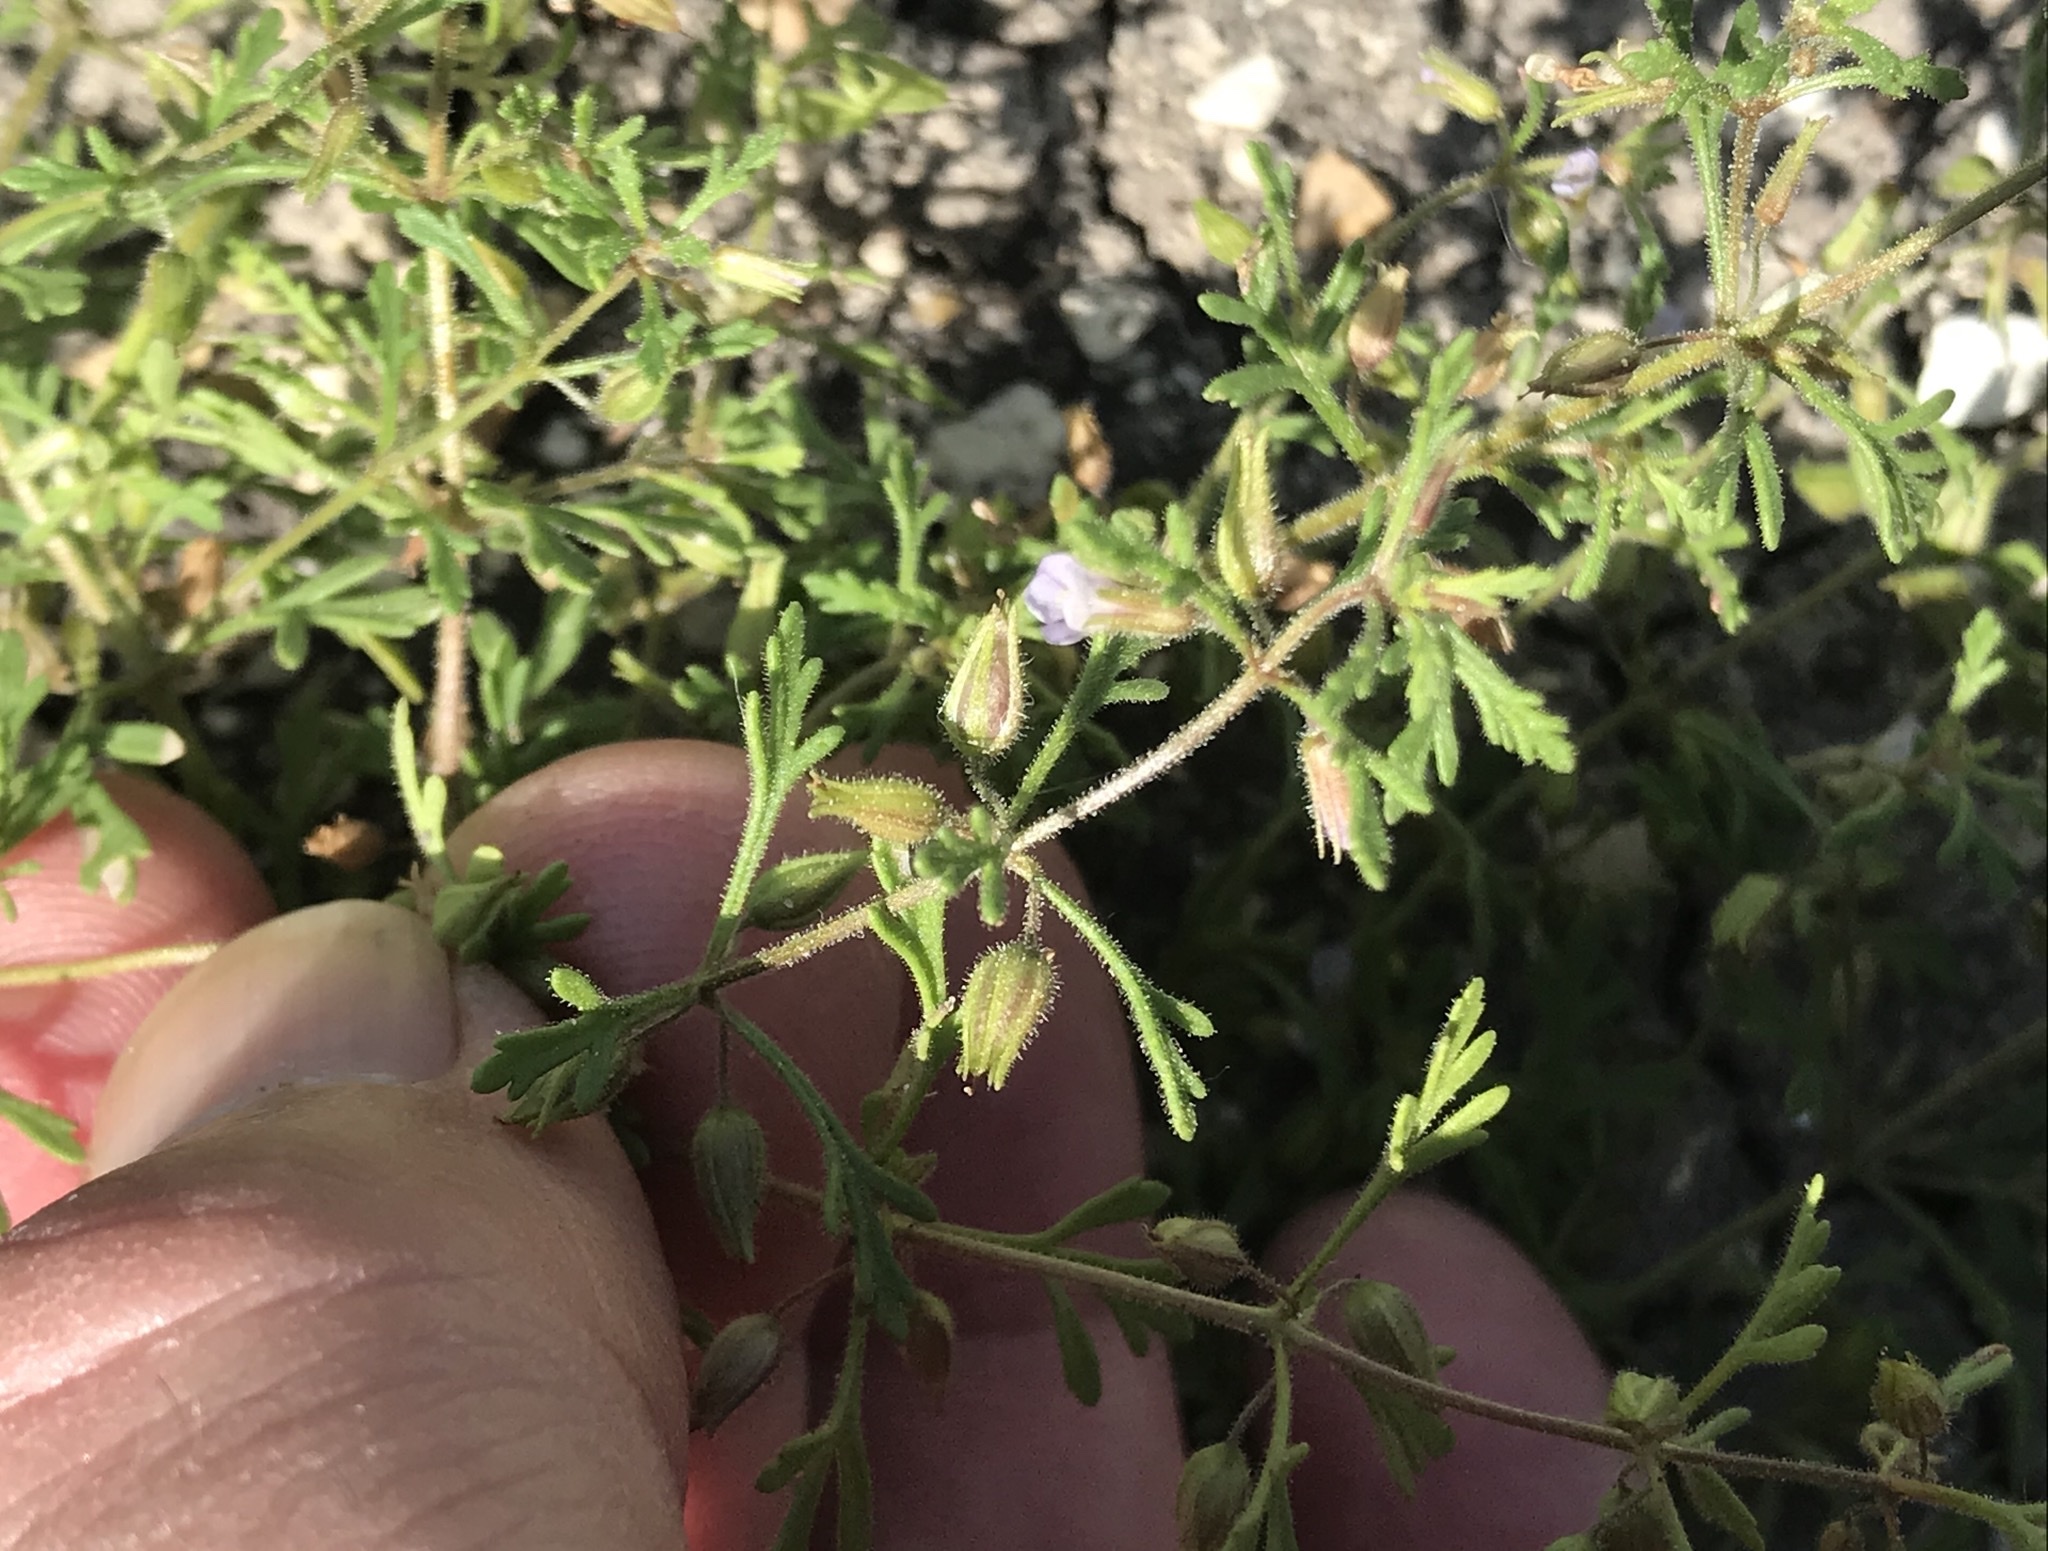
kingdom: Plantae
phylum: Tracheophyta
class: Magnoliopsida
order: Lamiales
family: Plantaginaceae
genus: Leucospora
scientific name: Leucospora multifida
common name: Narrow-leaf paleseed
